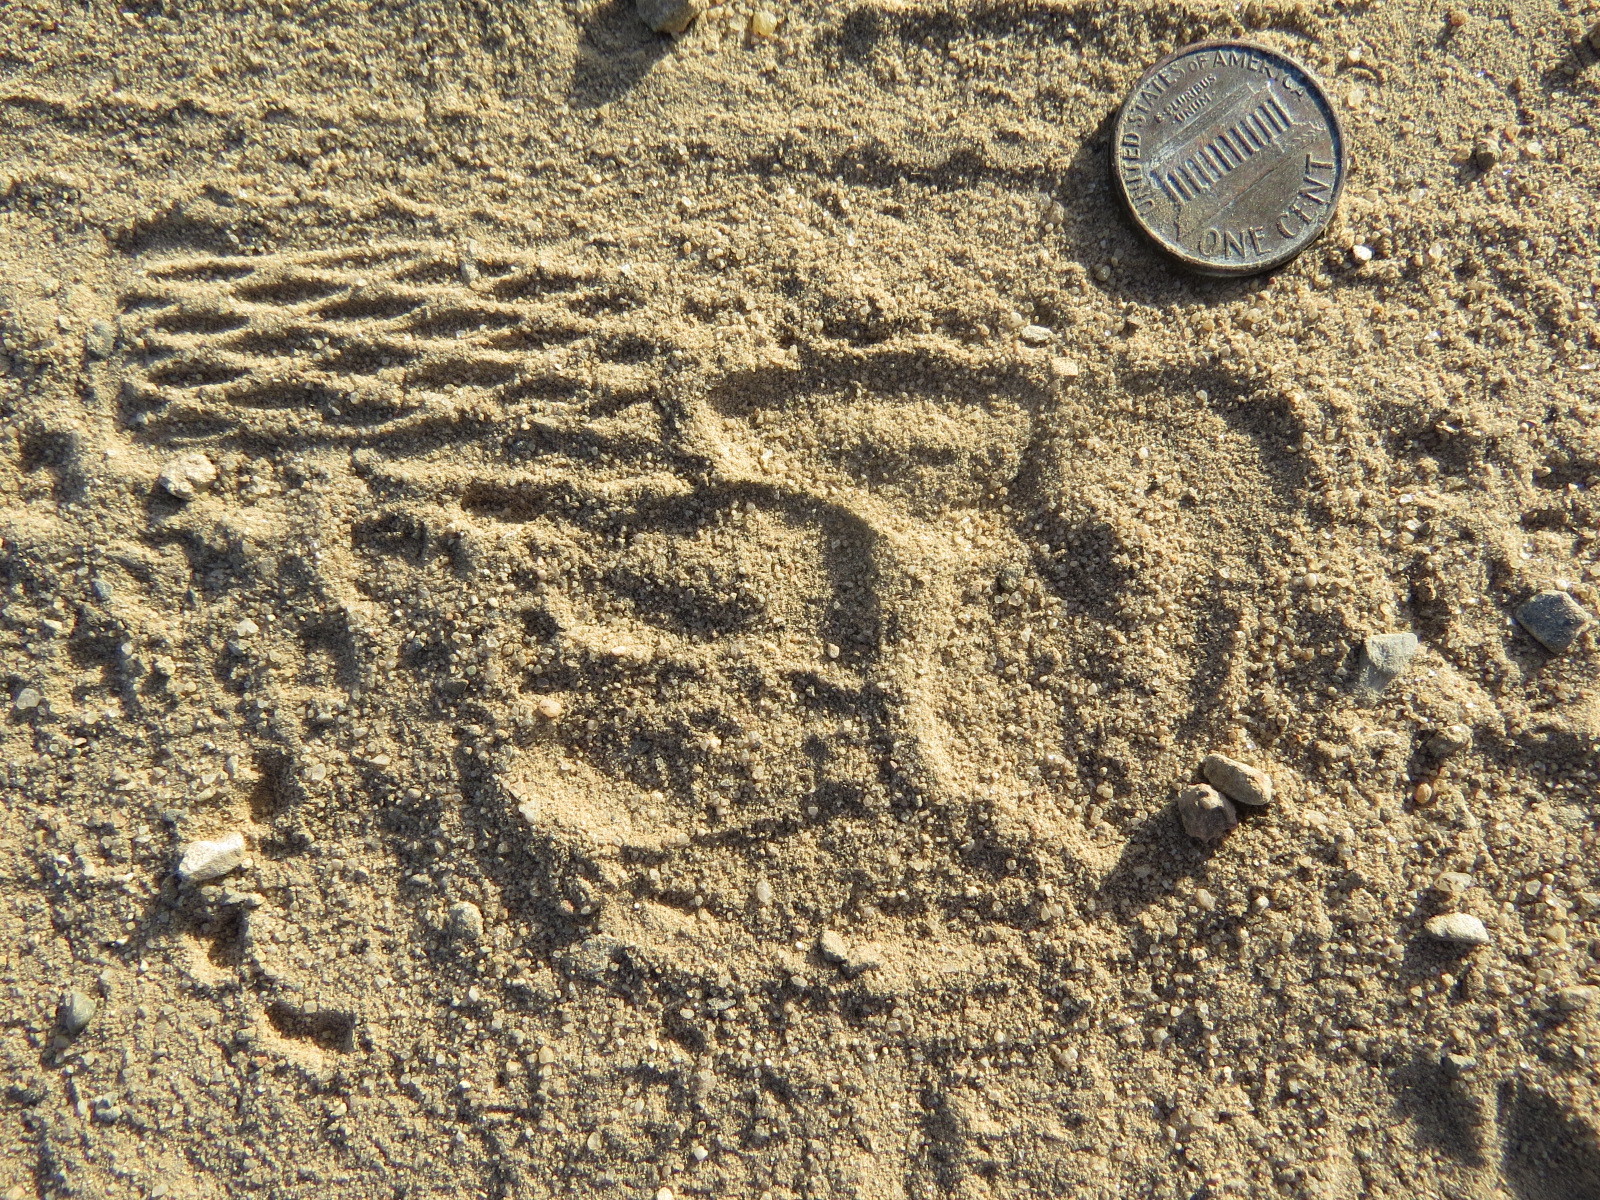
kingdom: Animalia
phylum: Chordata
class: Mammalia
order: Carnivora
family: Mustelidae
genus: Taxidea
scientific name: Taxidea taxus
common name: American badger
